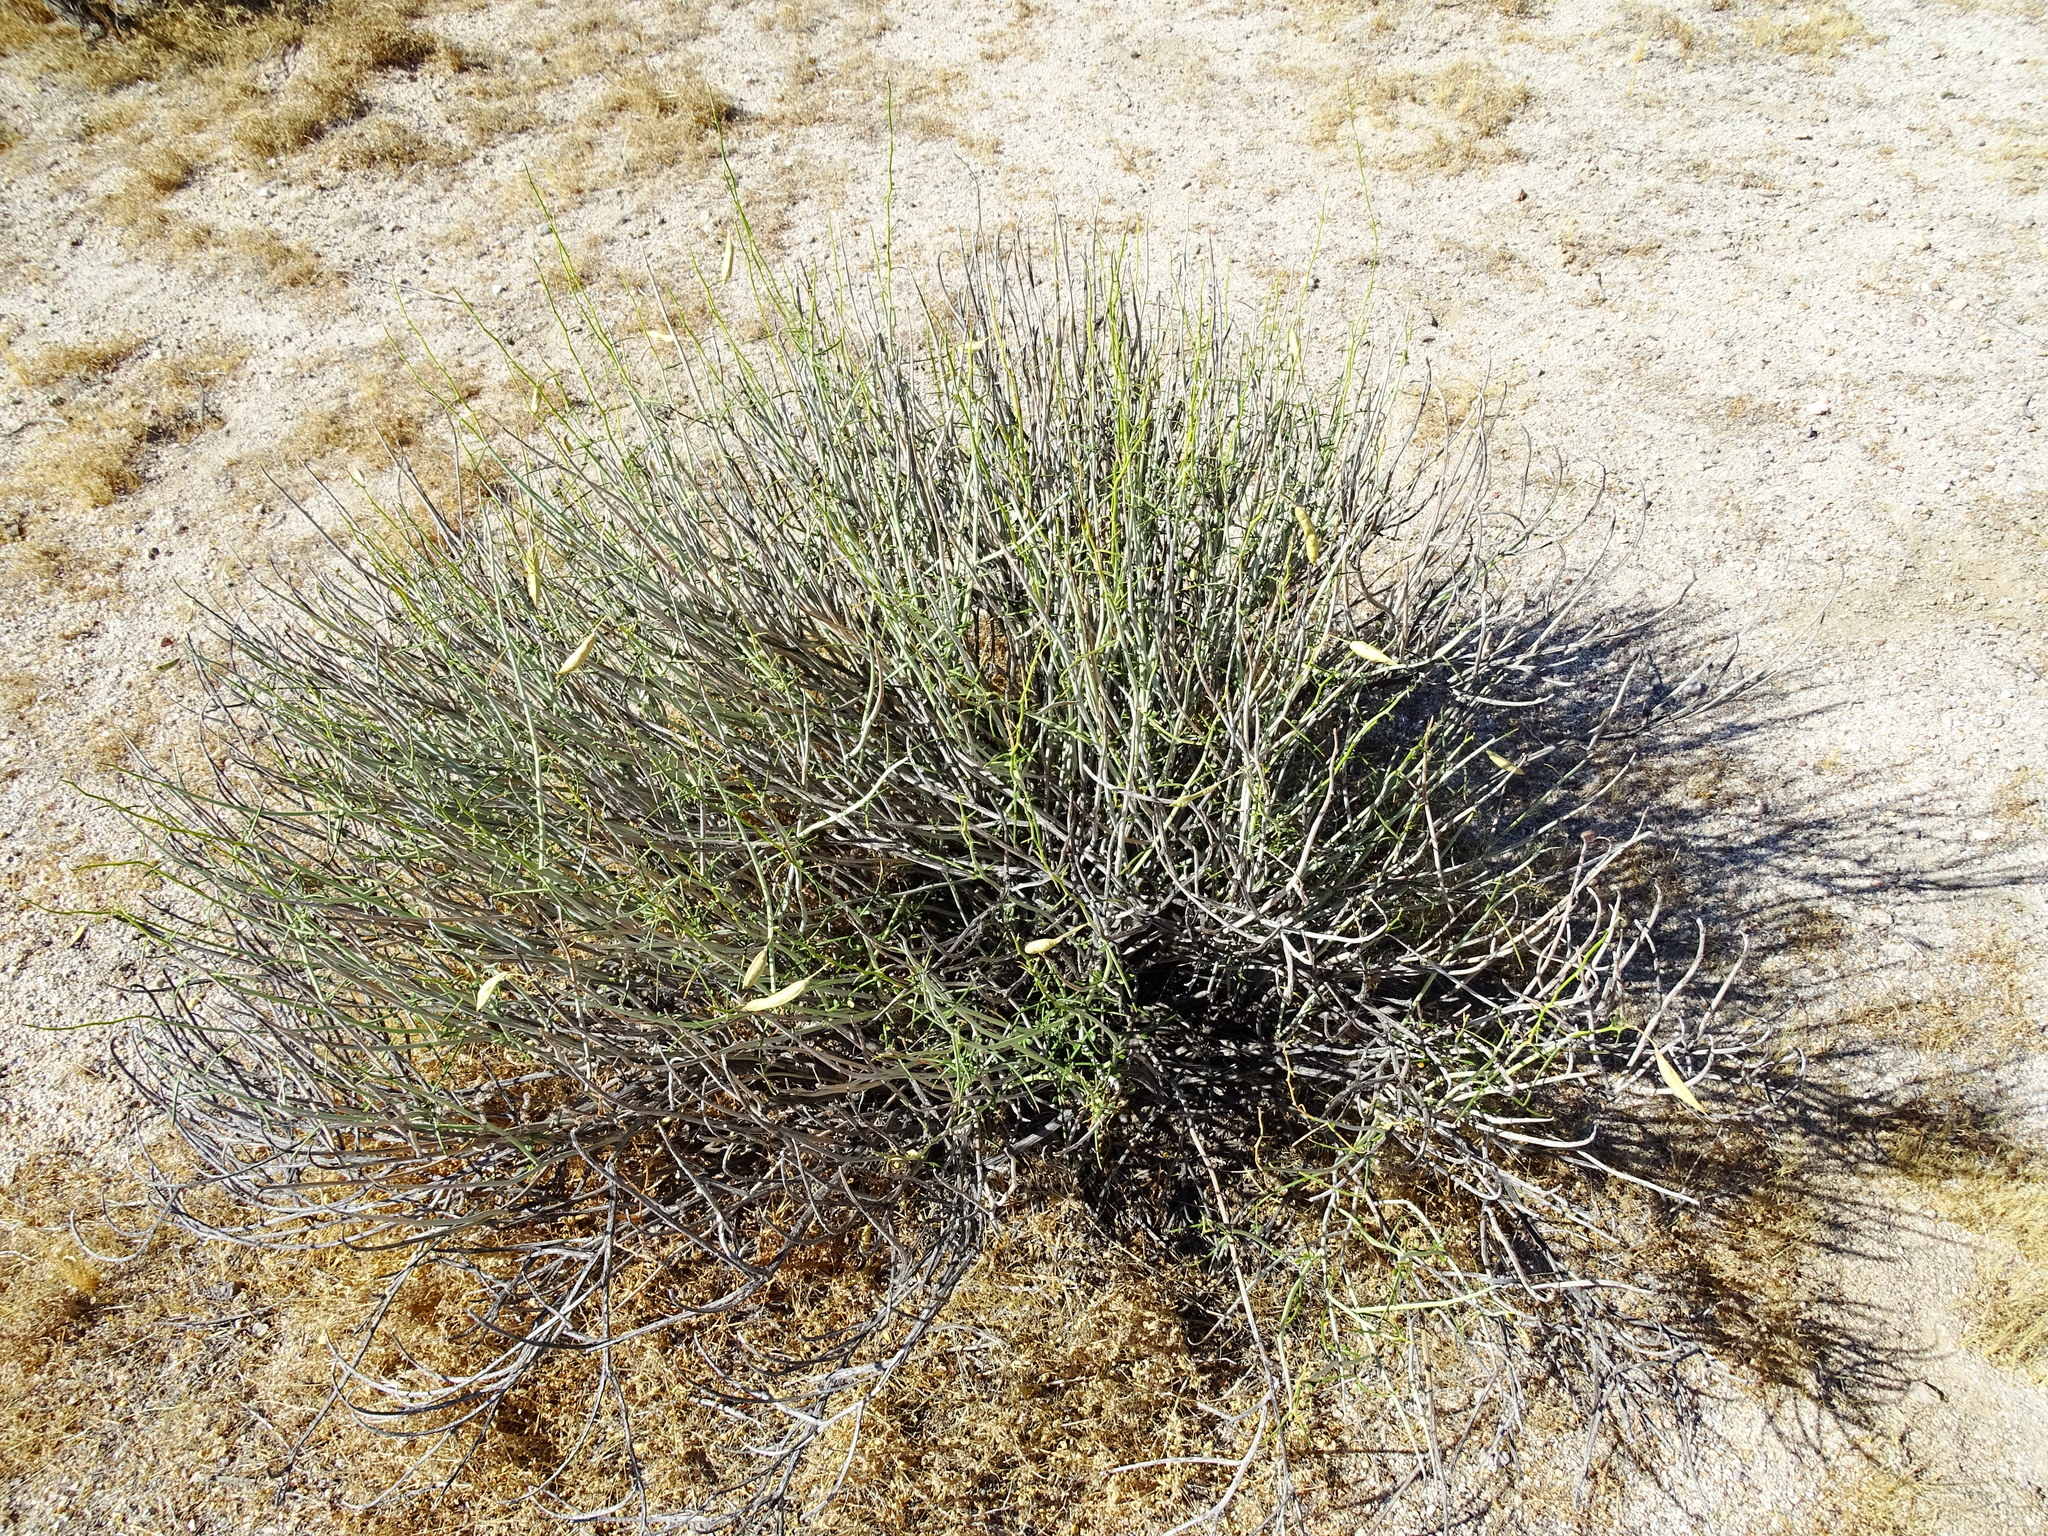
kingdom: Plantae
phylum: Tracheophyta
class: Magnoliopsida
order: Fabales
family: Fabaceae
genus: Senna
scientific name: Senna armata
